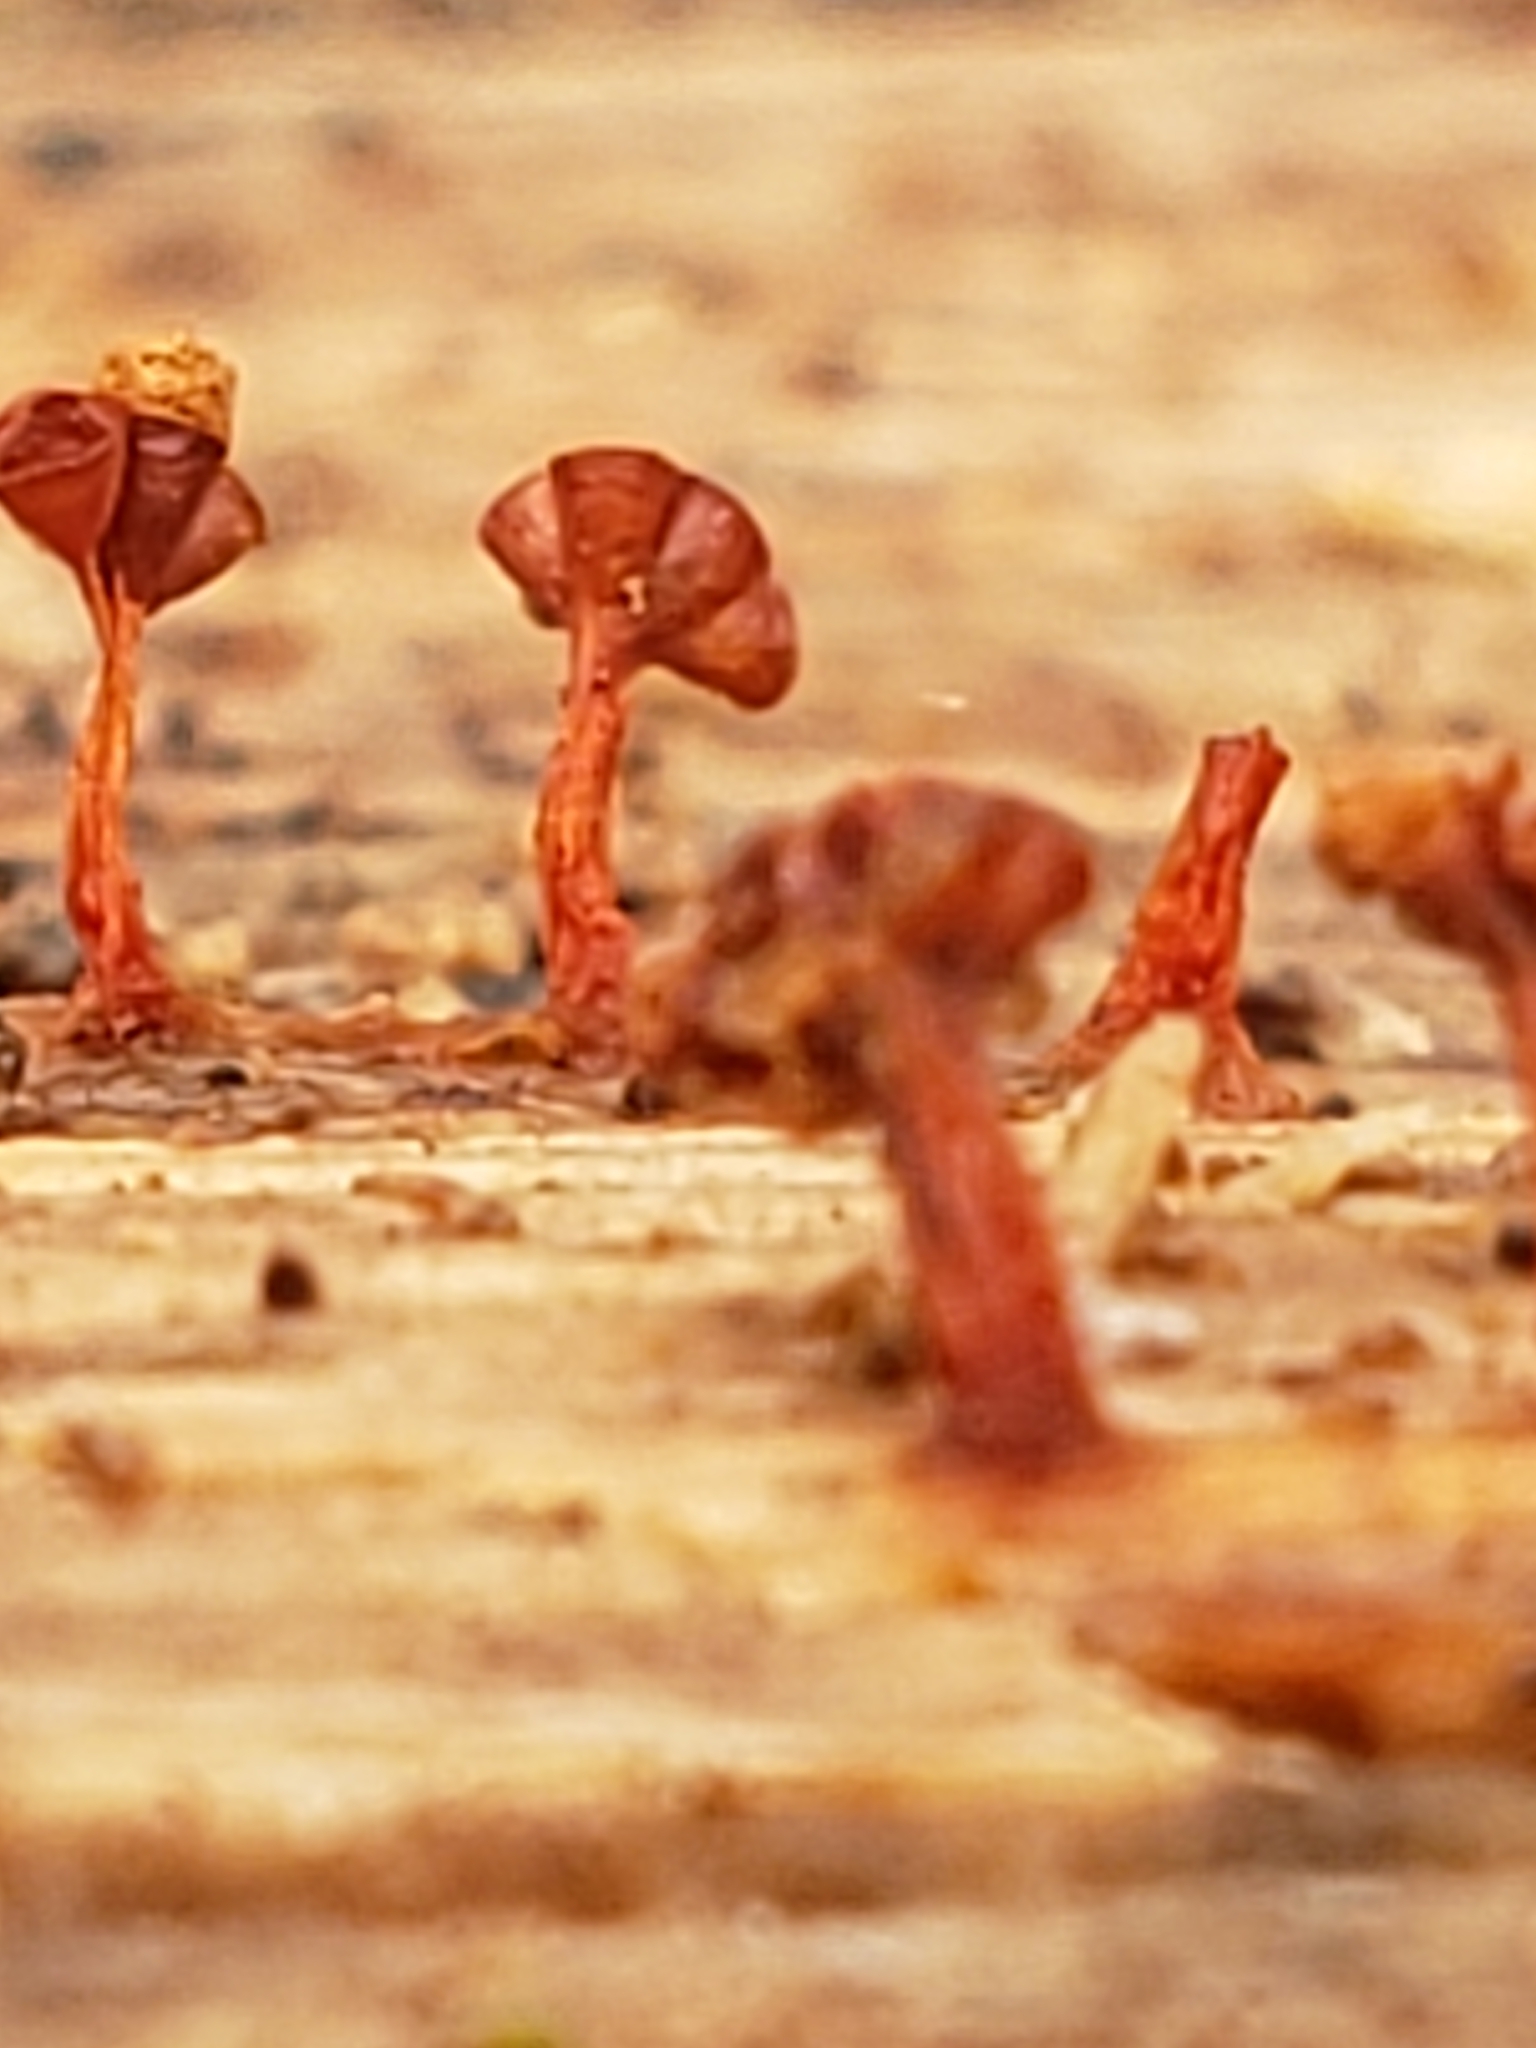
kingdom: Protozoa
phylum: Mycetozoa
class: Myxomycetes
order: Trichiales
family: Trichiaceae
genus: Metatrichia
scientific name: Metatrichia vesparia
